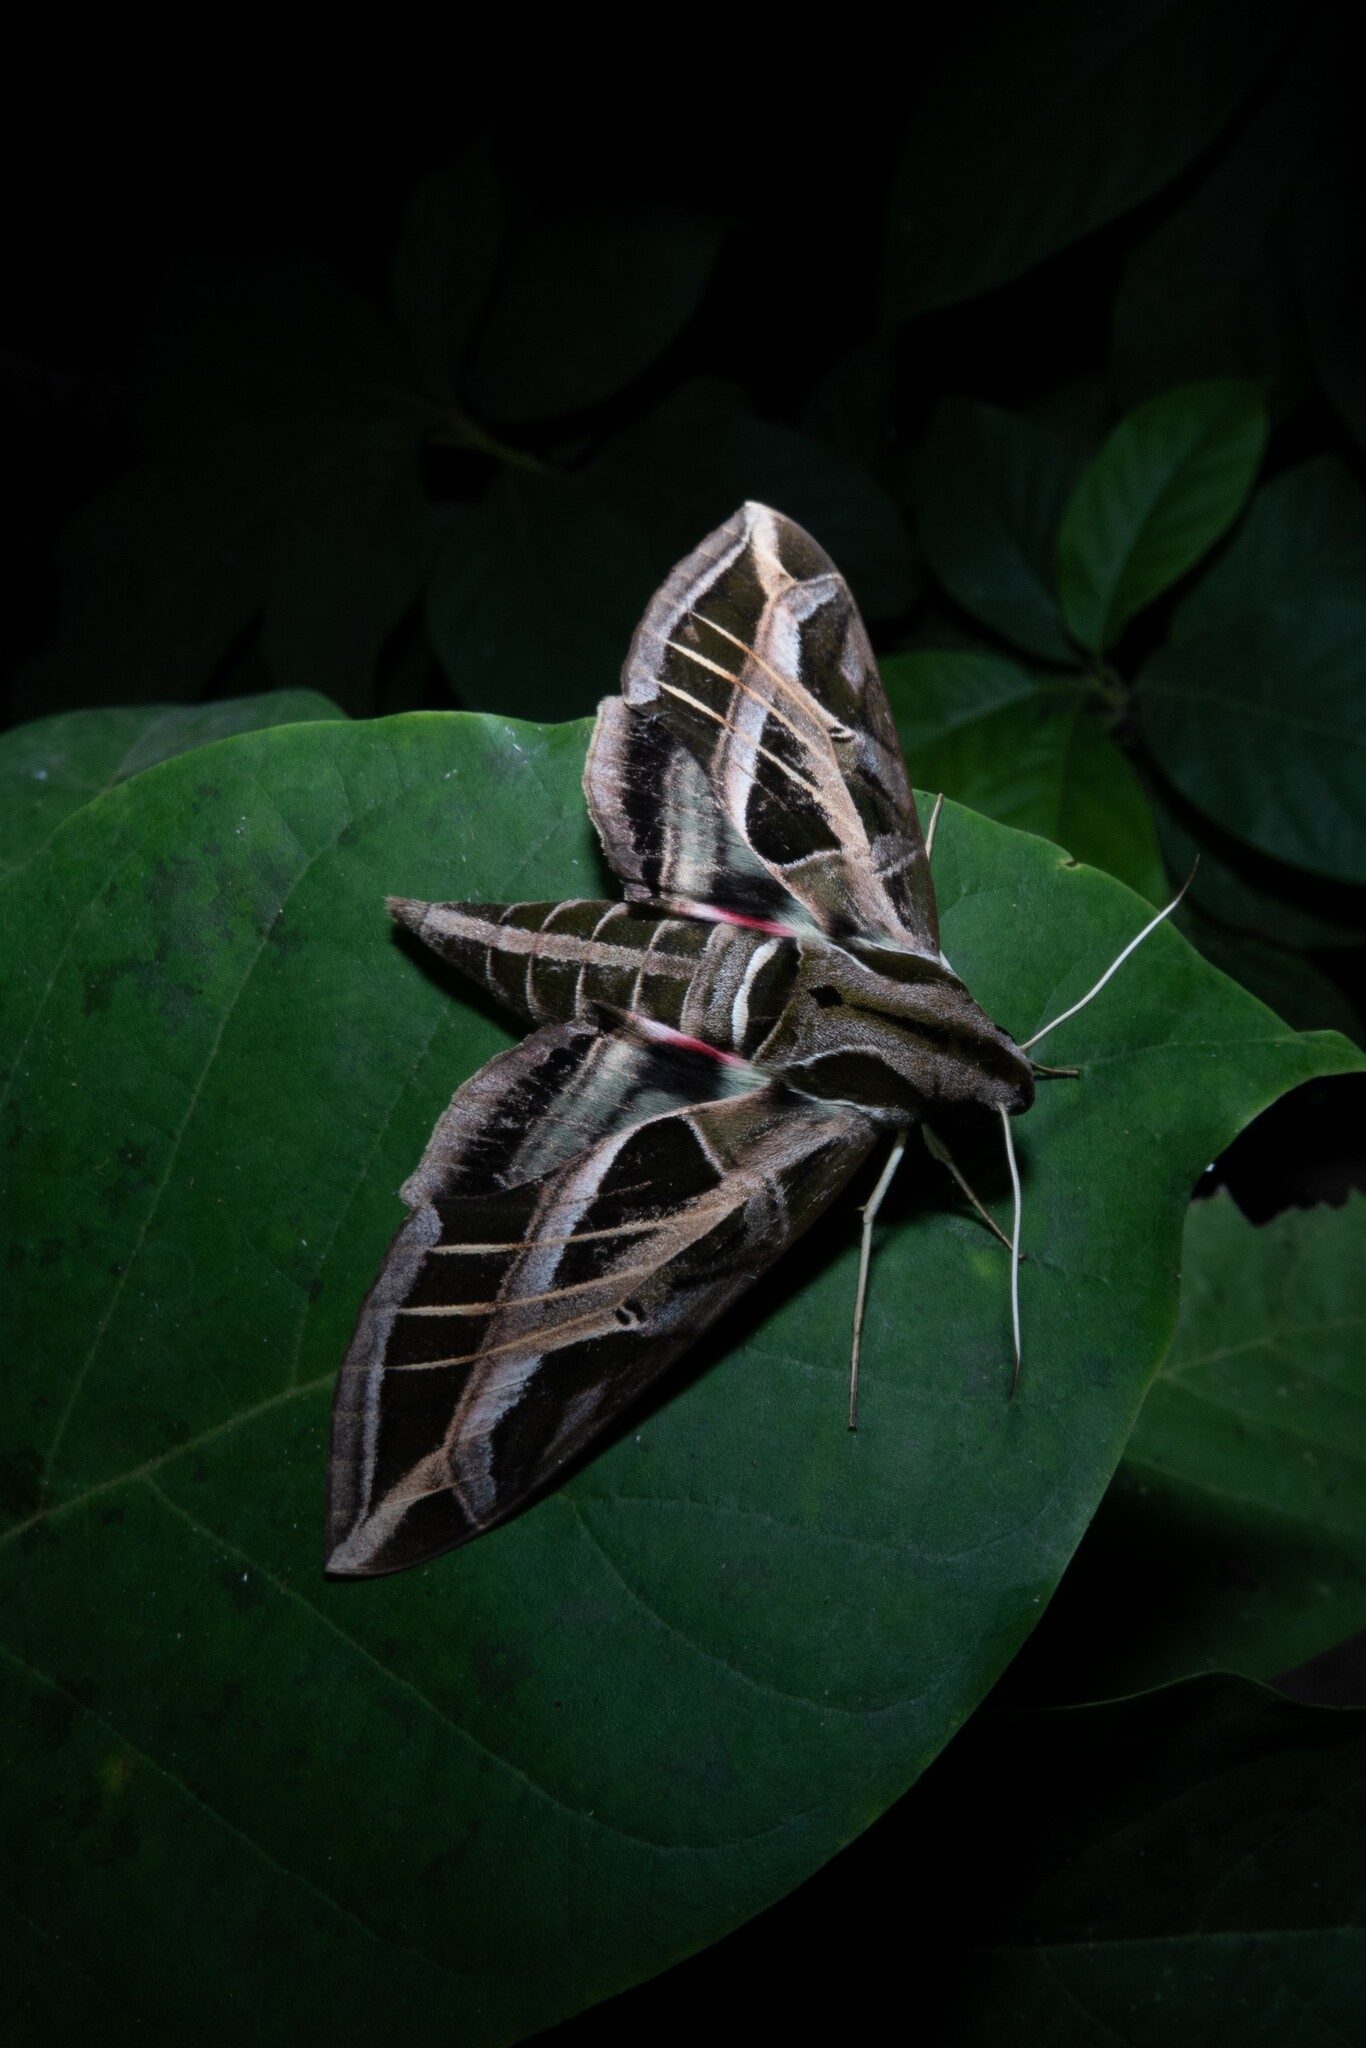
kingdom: Animalia
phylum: Arthropoda
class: Insecta
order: Lepidoptera
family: Sphingidae
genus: Eumorpha
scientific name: Eumorpha vitis
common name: Vine sphinx
